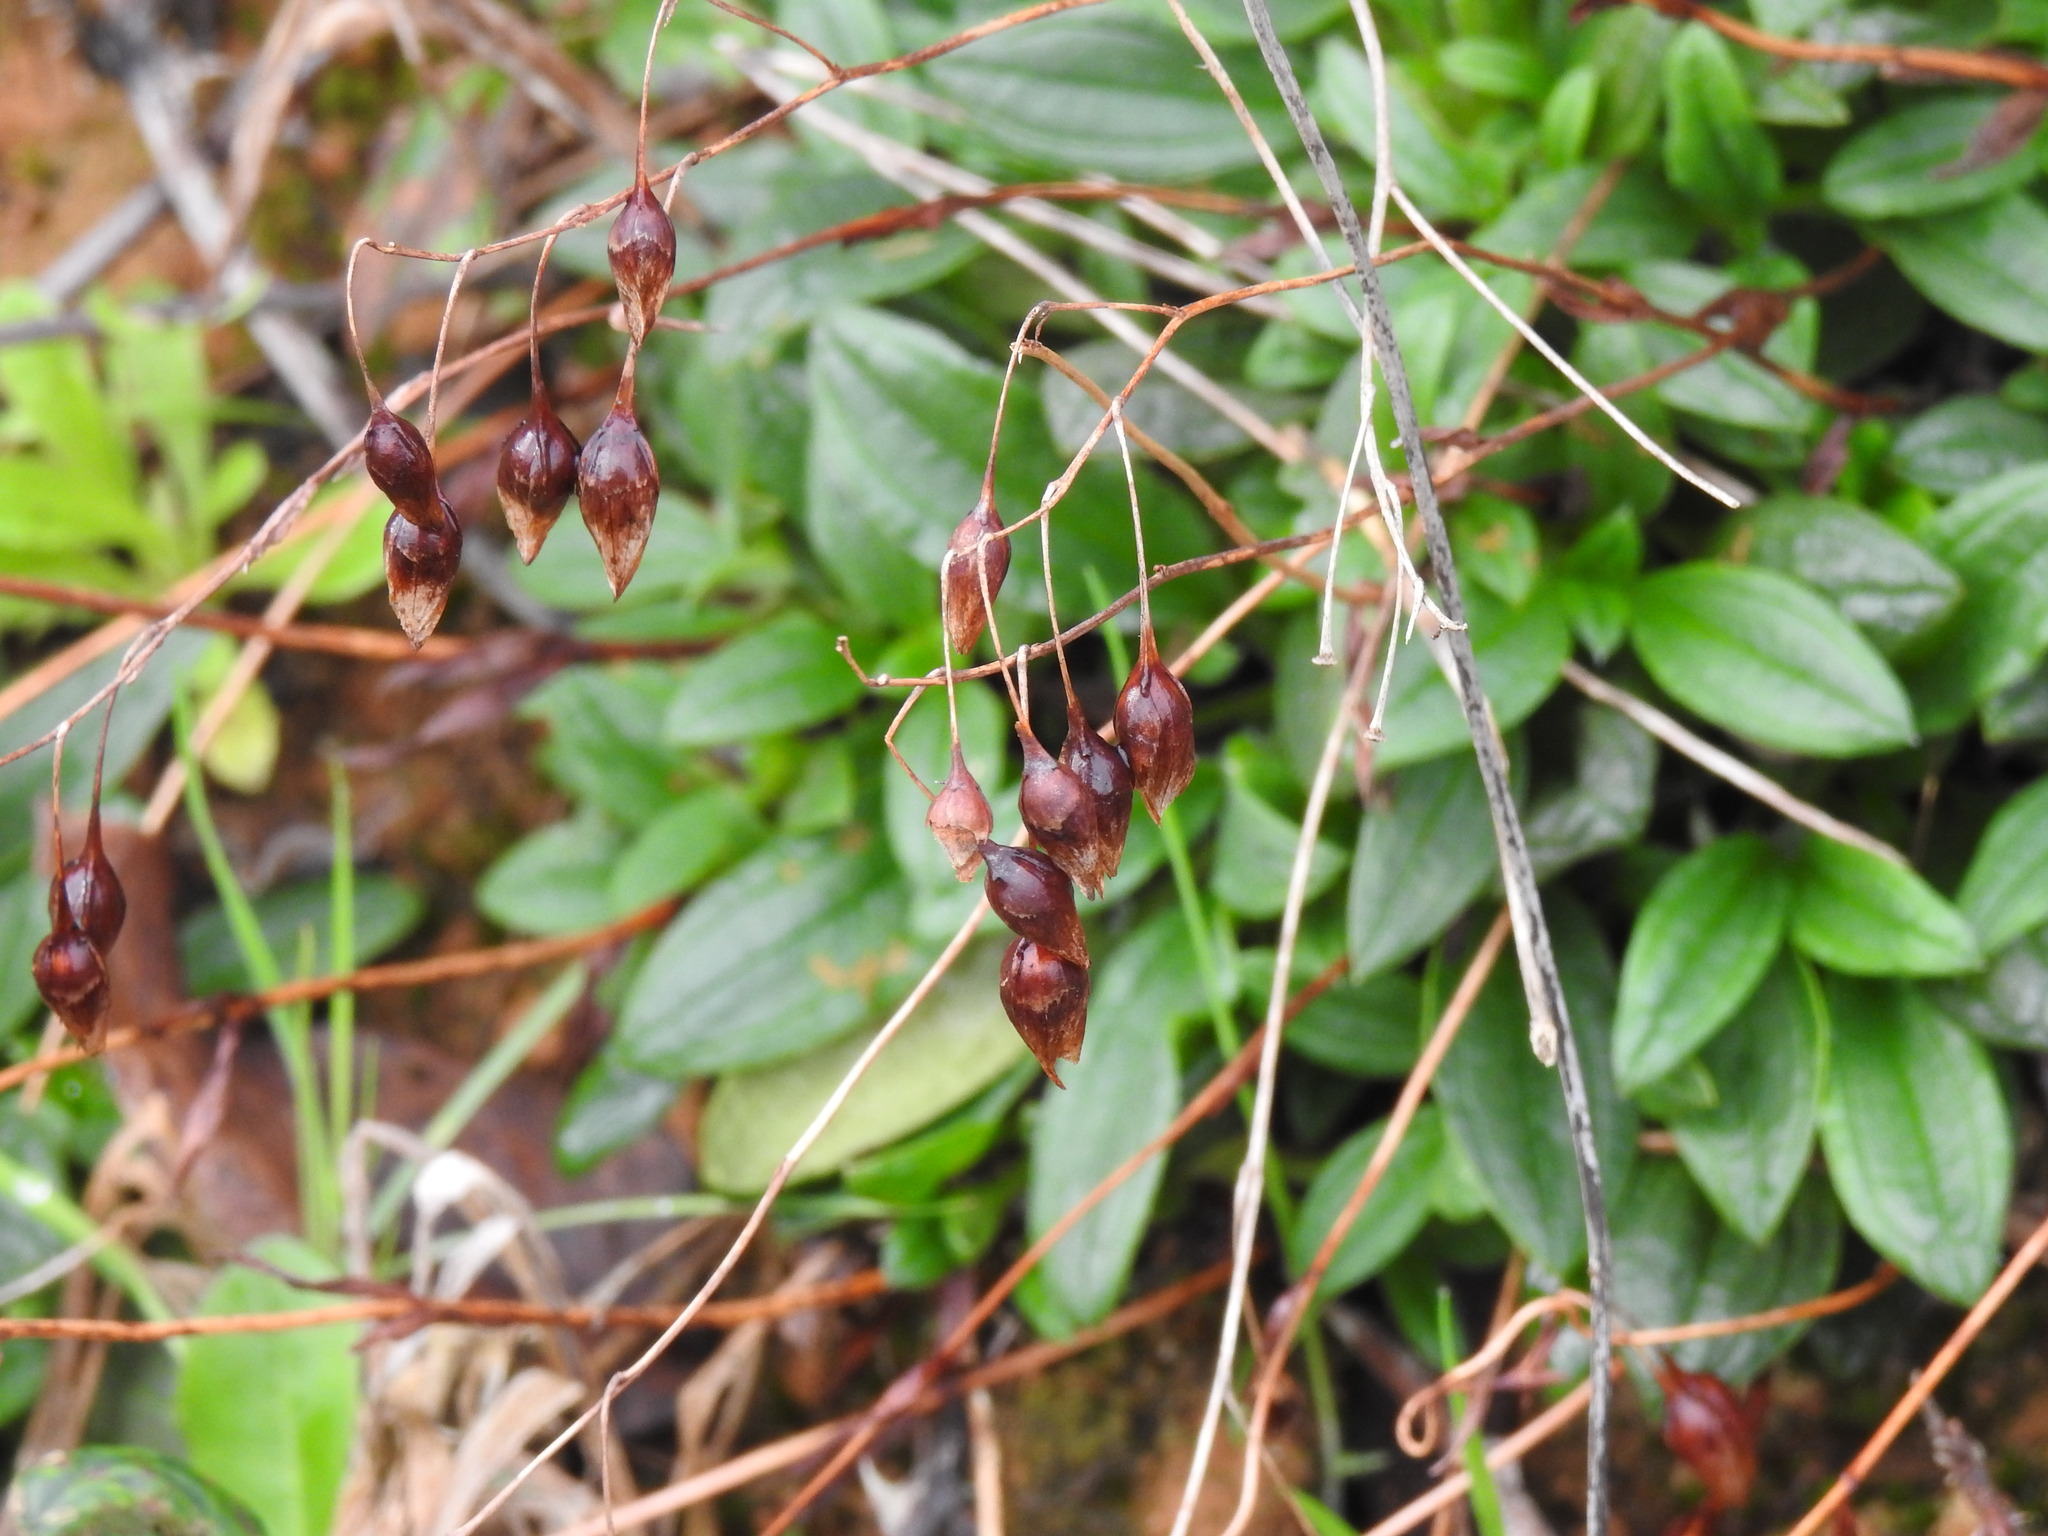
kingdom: Plantae
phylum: Tracheophyta
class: Magnoliopsida
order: Malvales
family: Cistaceae
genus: Tuberaria
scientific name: Tuberaria lignosa
